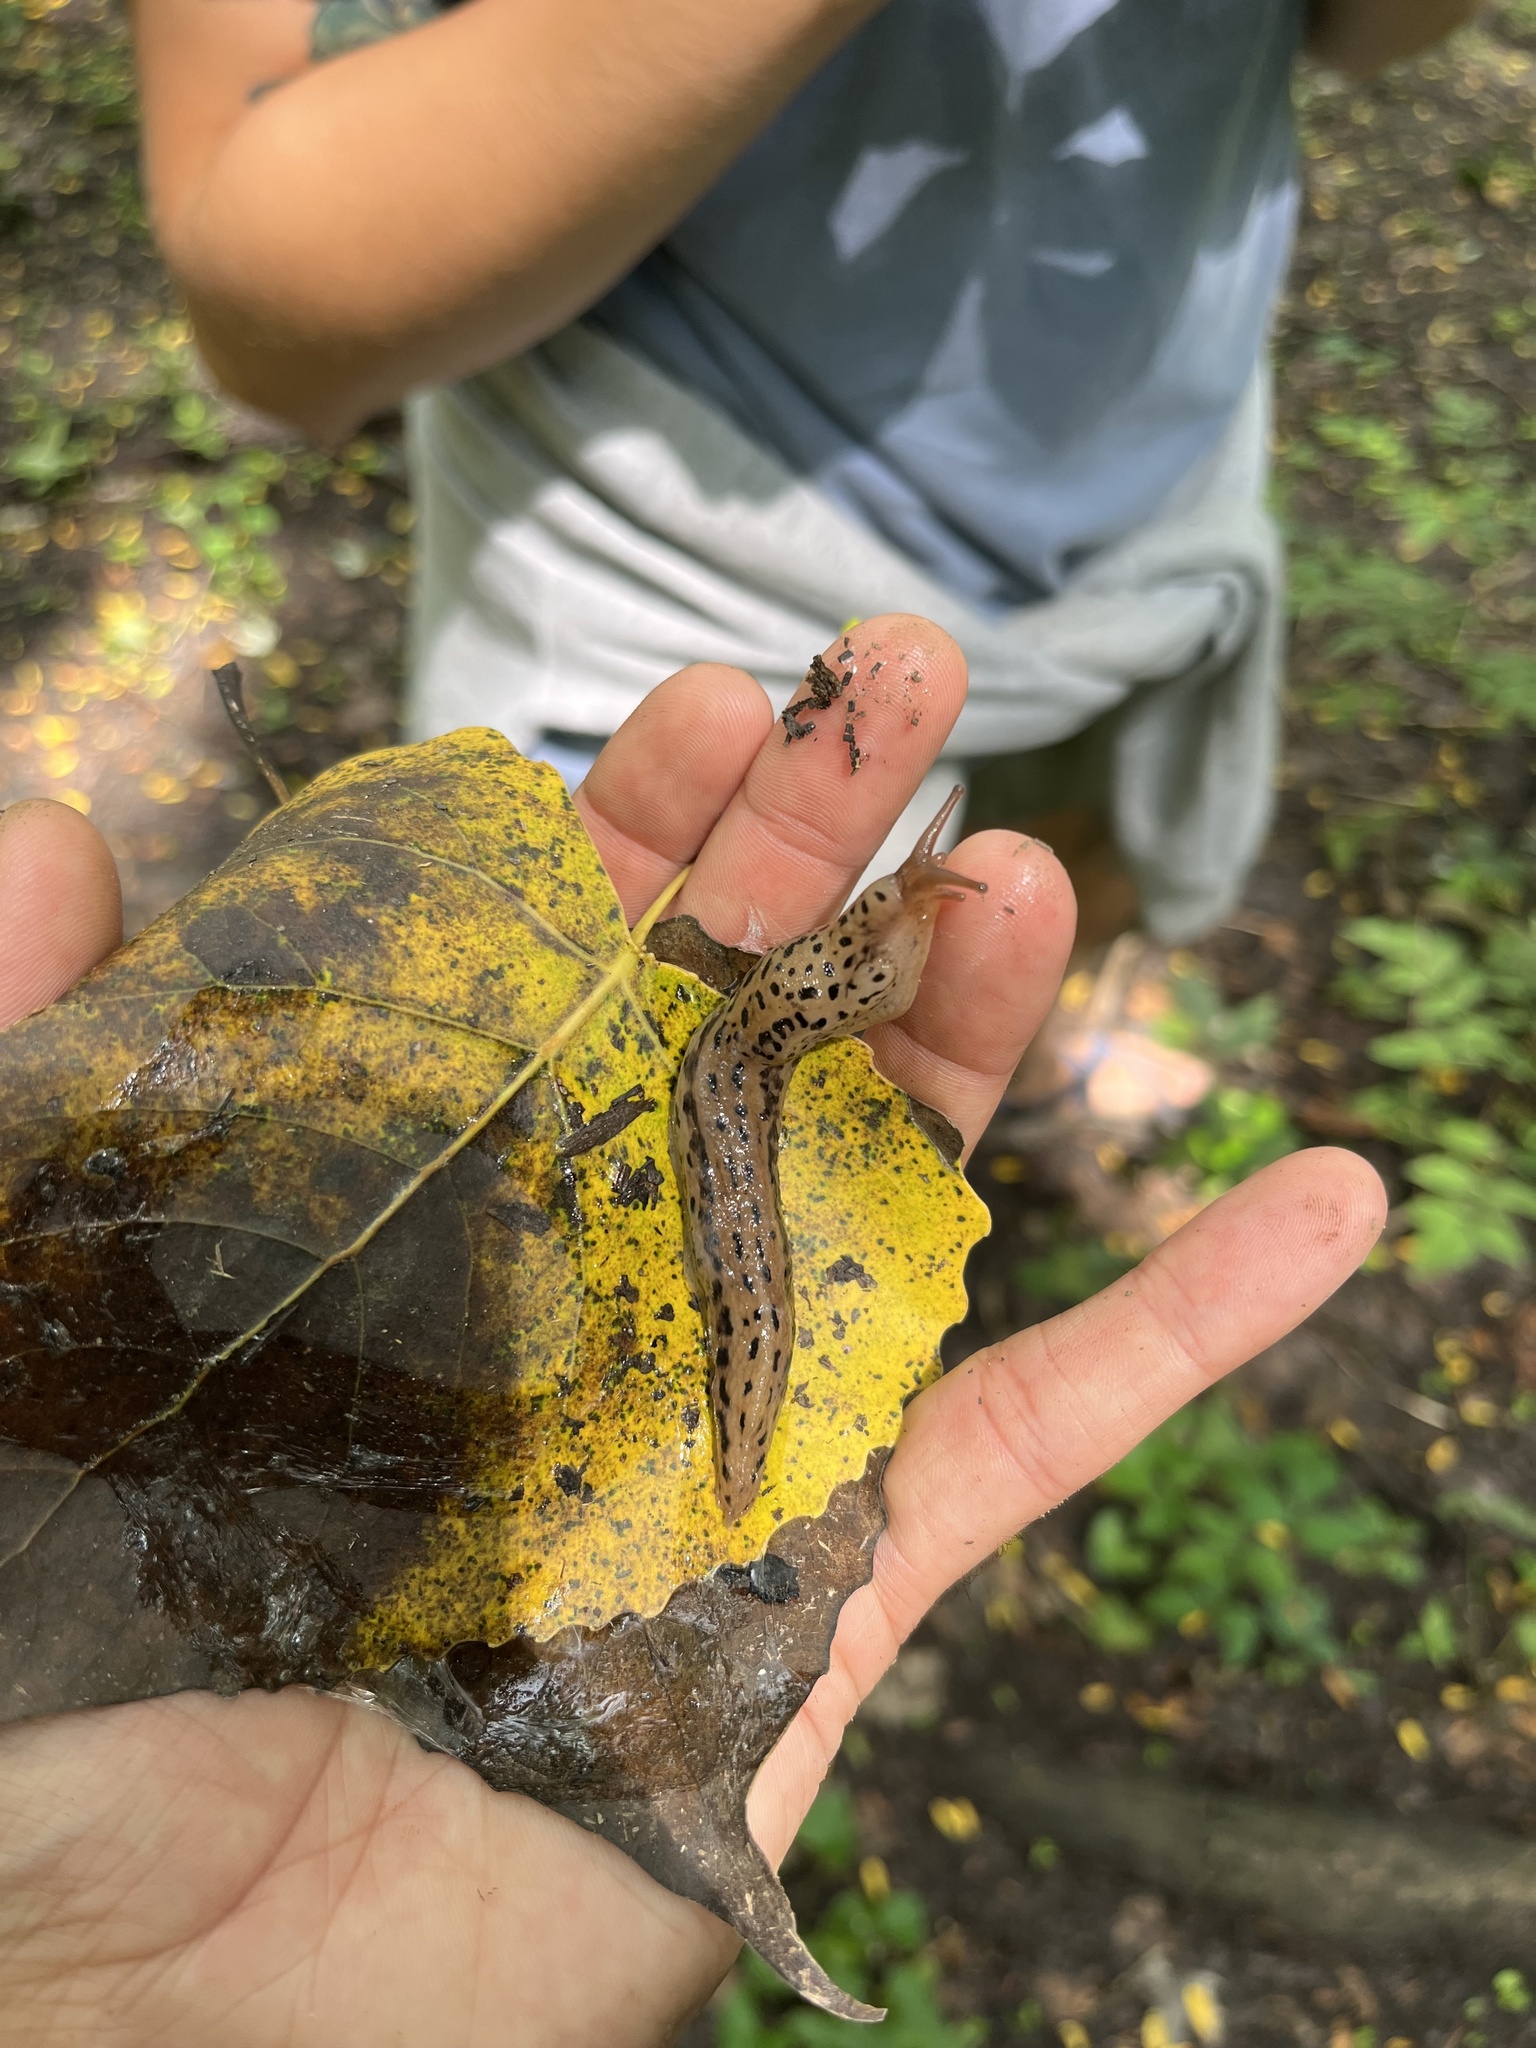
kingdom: Animalia
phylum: Mollusca
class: Gastropoda
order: Stylommatophora
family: Limacidae
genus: Limax
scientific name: Limax maximus
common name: Great grey slug
